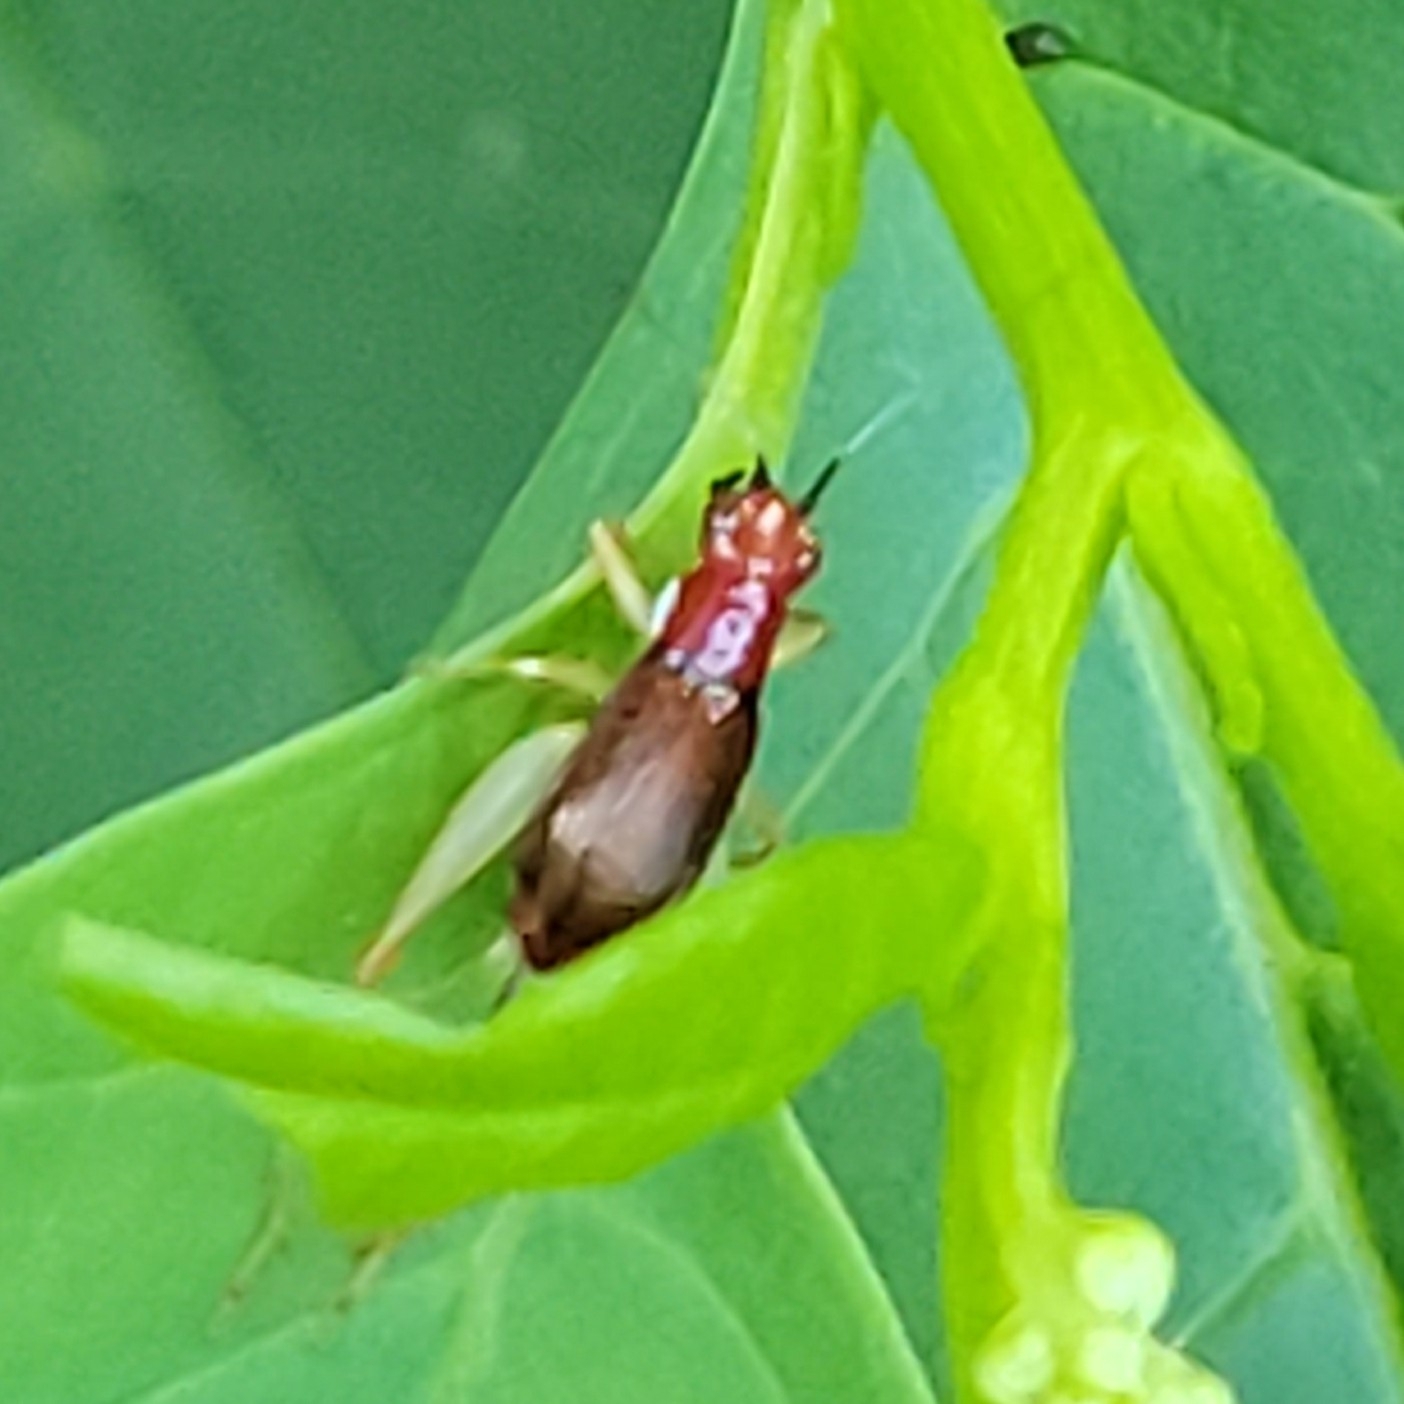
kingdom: Animalia
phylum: Arthropoda
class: Insecta
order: Orthoptera
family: Trigonidiidae
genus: Phyllopalpus
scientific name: Phyllopalpus pulchellus
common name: Handsome trig
